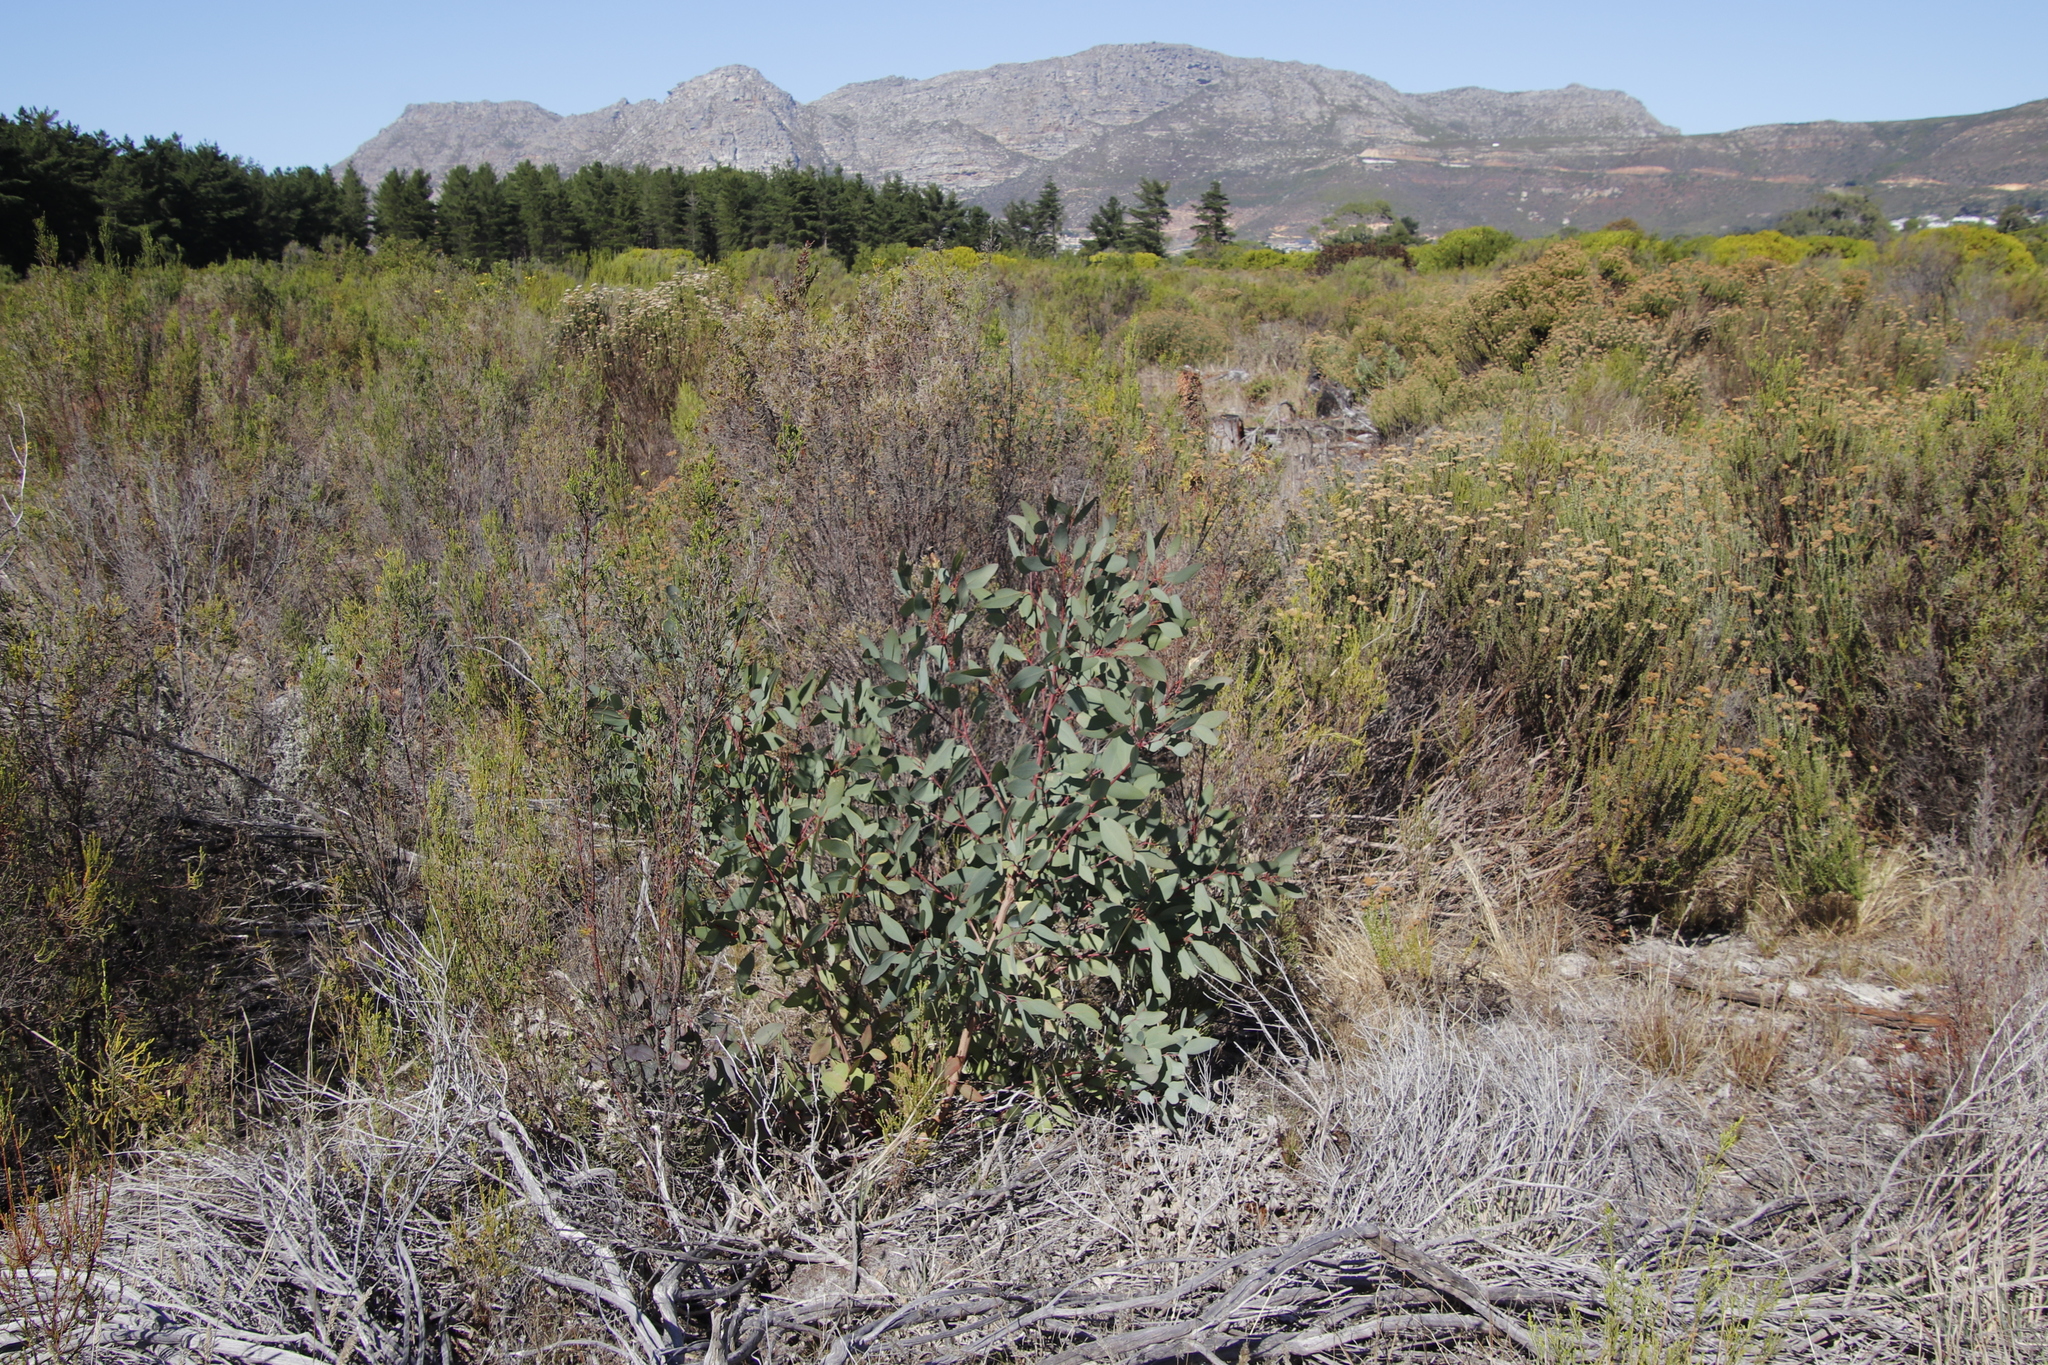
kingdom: Plantae
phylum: Tracheophyta
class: Magnoliopsida
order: Myrtales
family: Myrtaceae
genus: Eucalyptus
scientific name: Eucalyptus botryoides
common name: Bangalay
